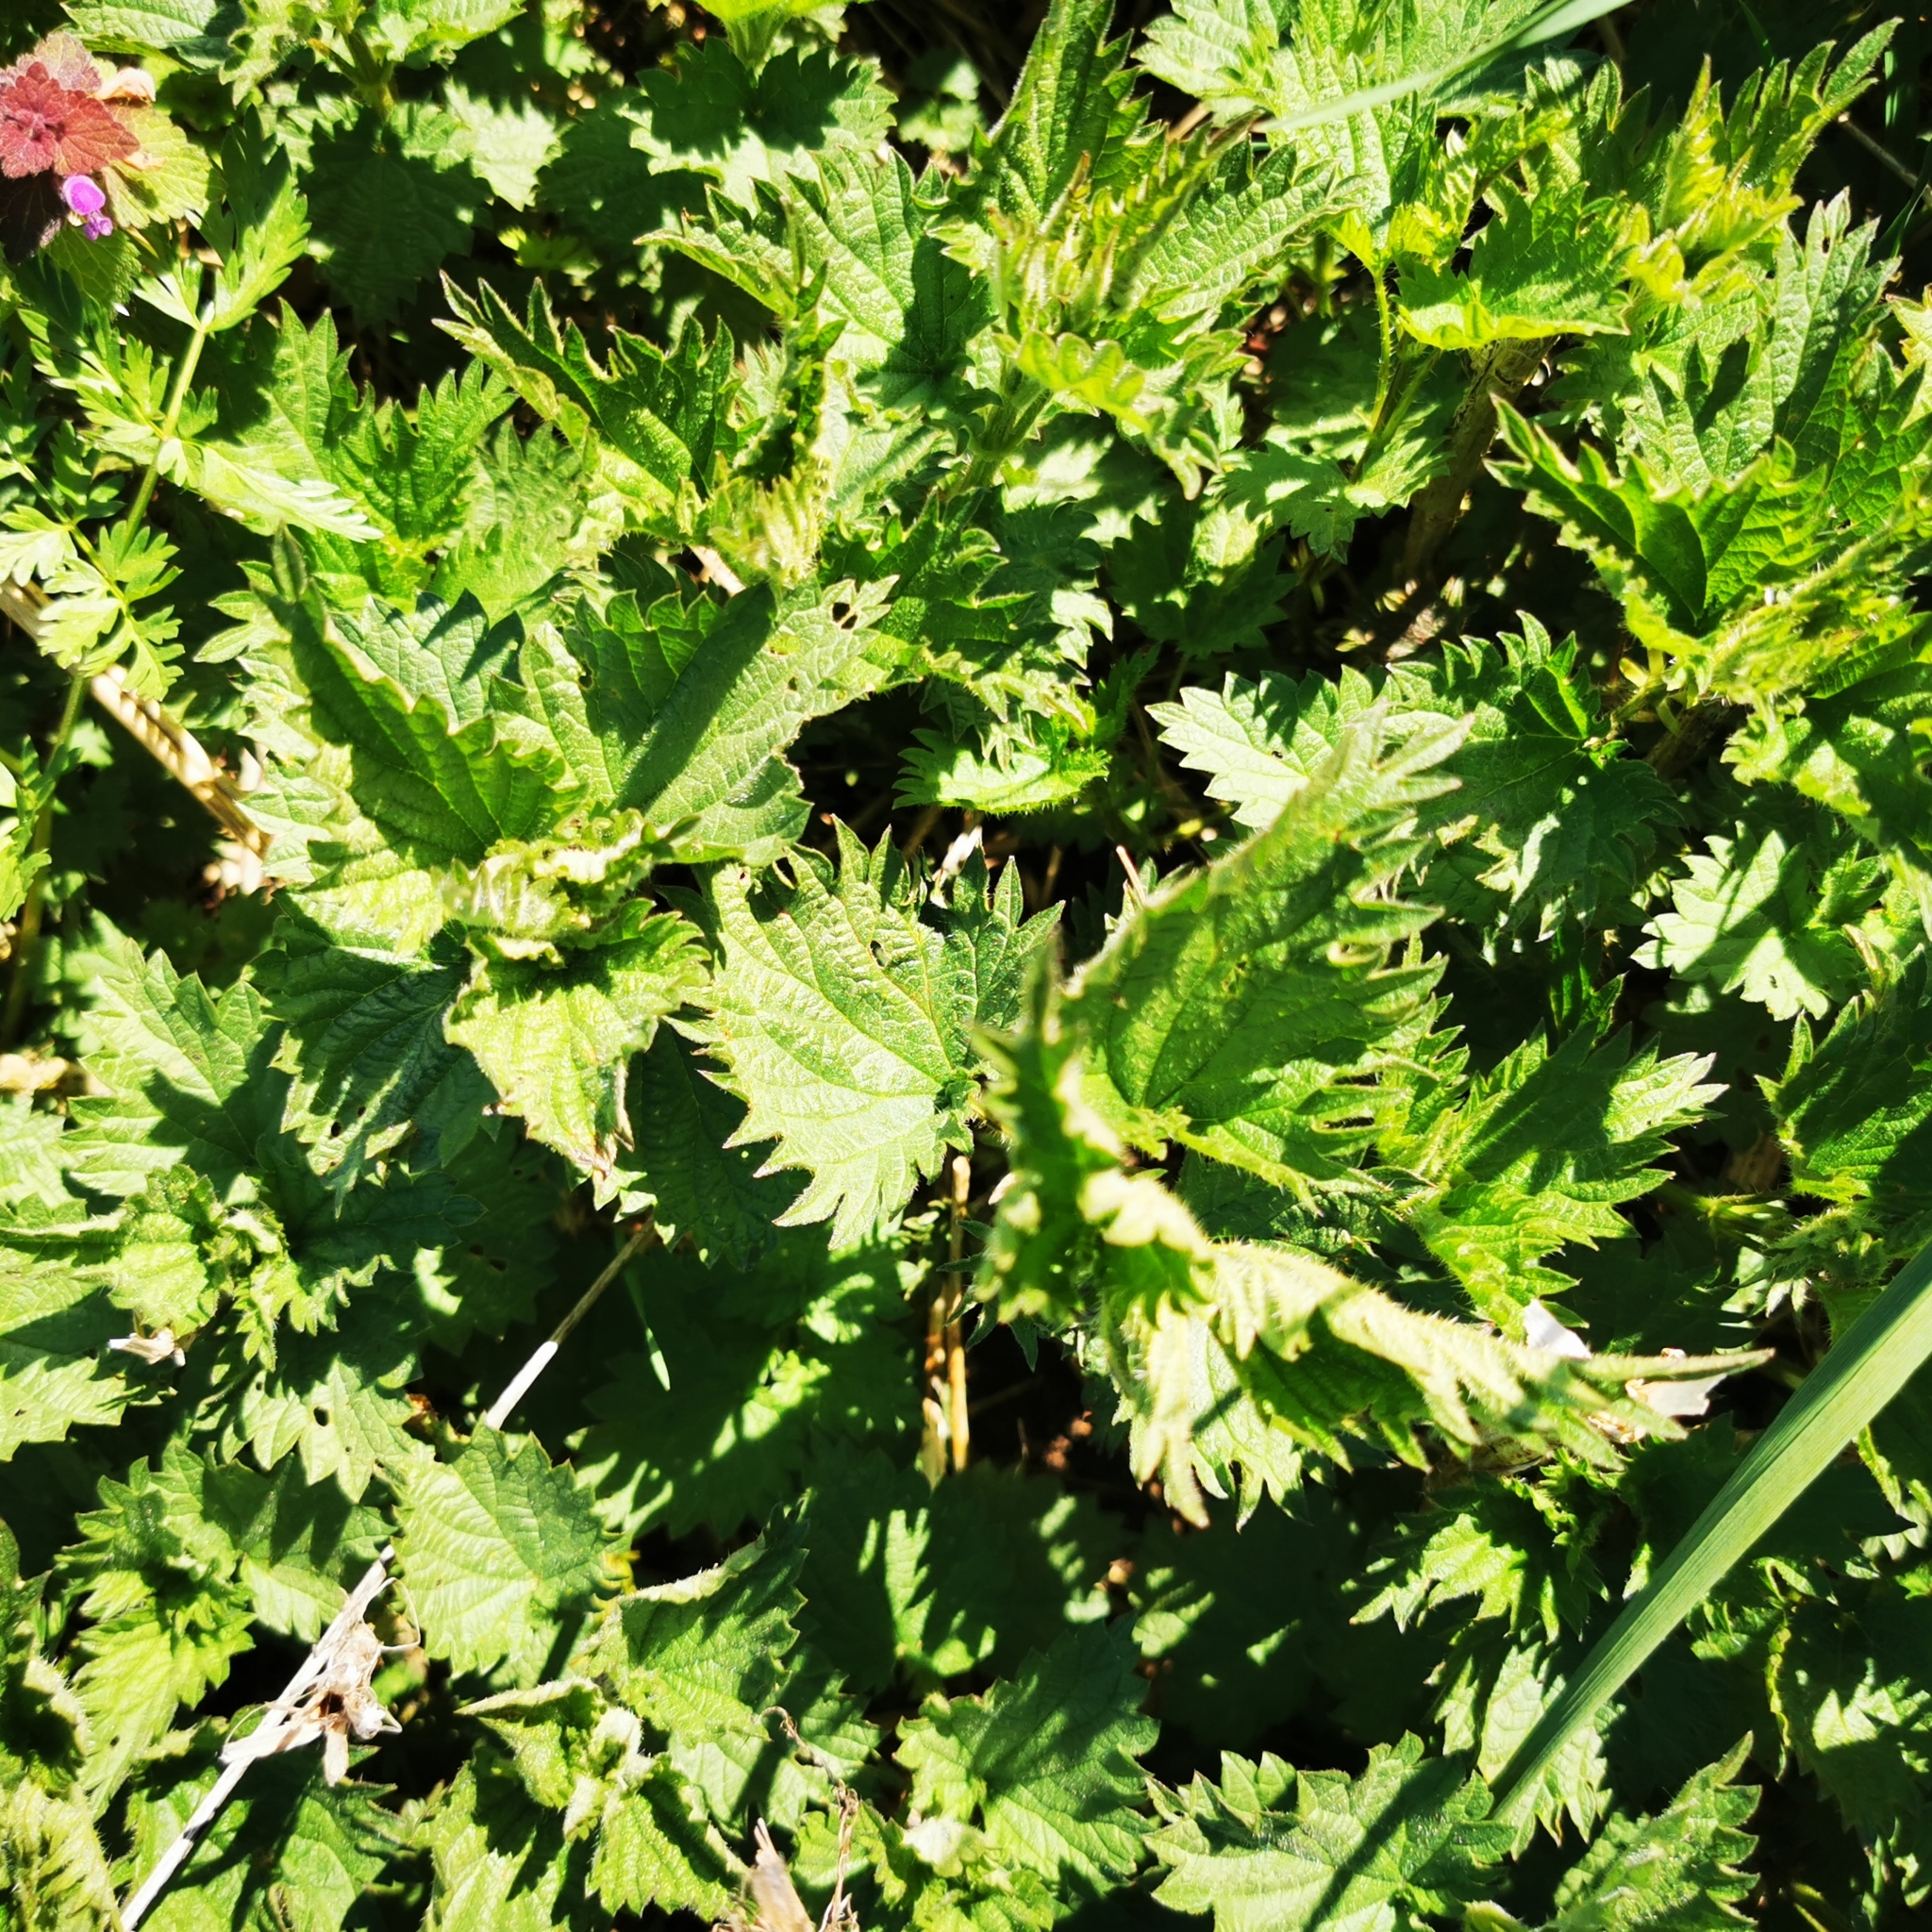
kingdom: Plantae
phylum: Tracheophyta
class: Magnoliopsida
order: Rosales
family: Urticaceae
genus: Urtica
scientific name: Urtica dioica
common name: Common nettle
